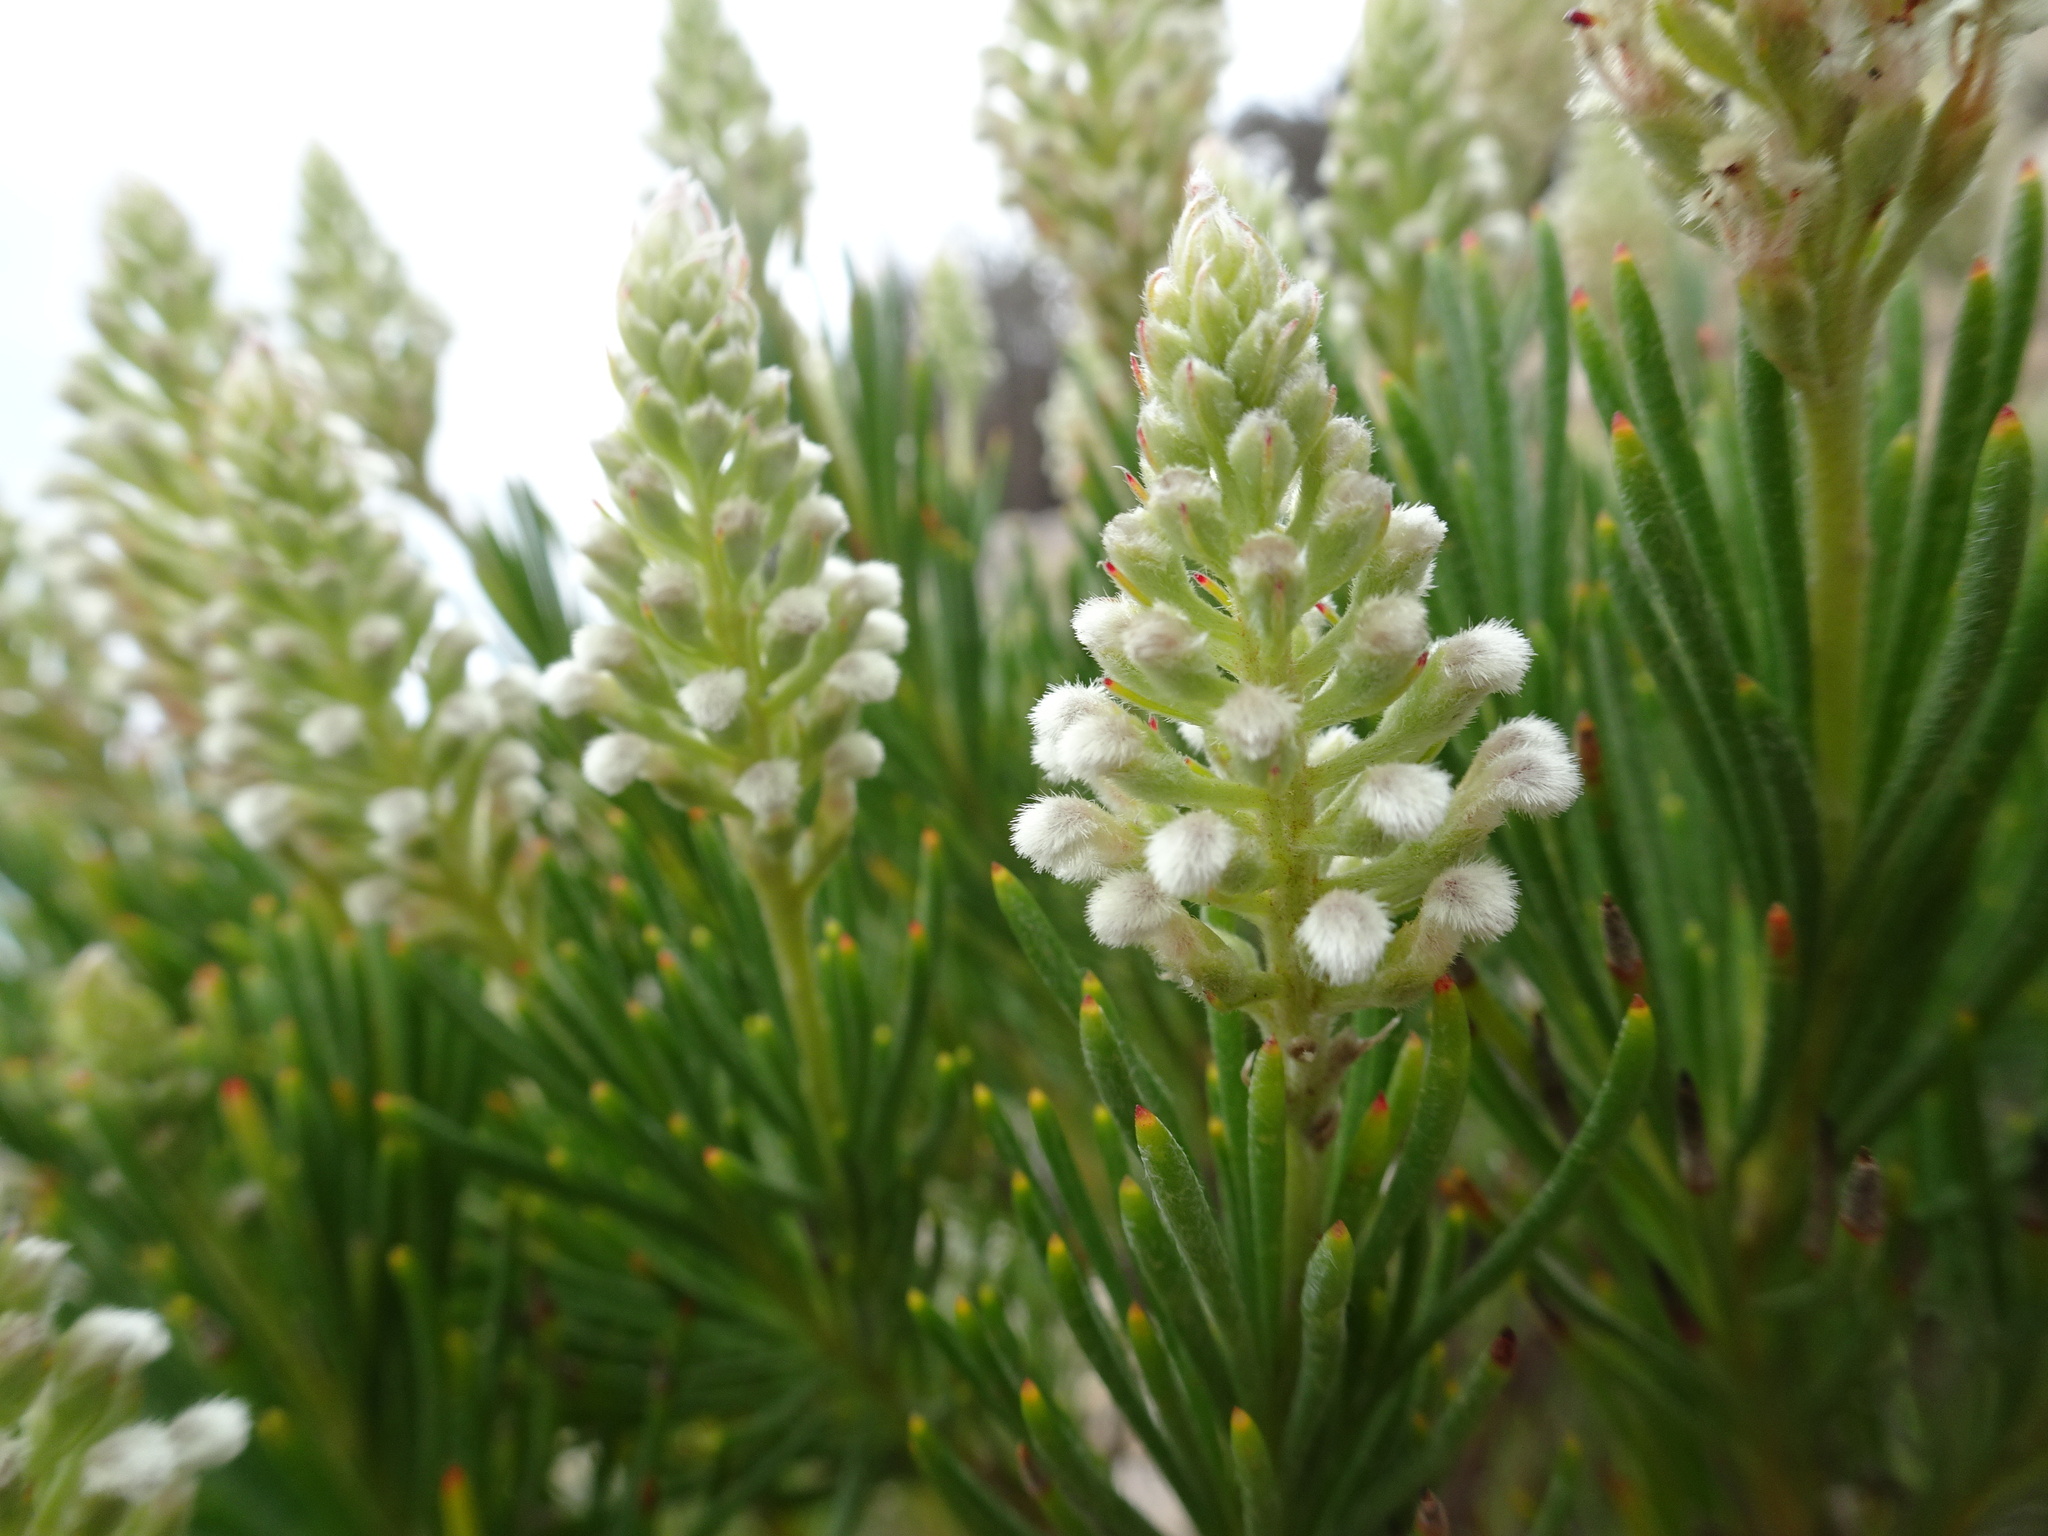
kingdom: Plantae
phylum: Tracheophyta
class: Magnoliopsida
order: Proteales
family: Proteaceae
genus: Spatalla
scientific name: Spatalla curvifolia
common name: White-stalked spoon
